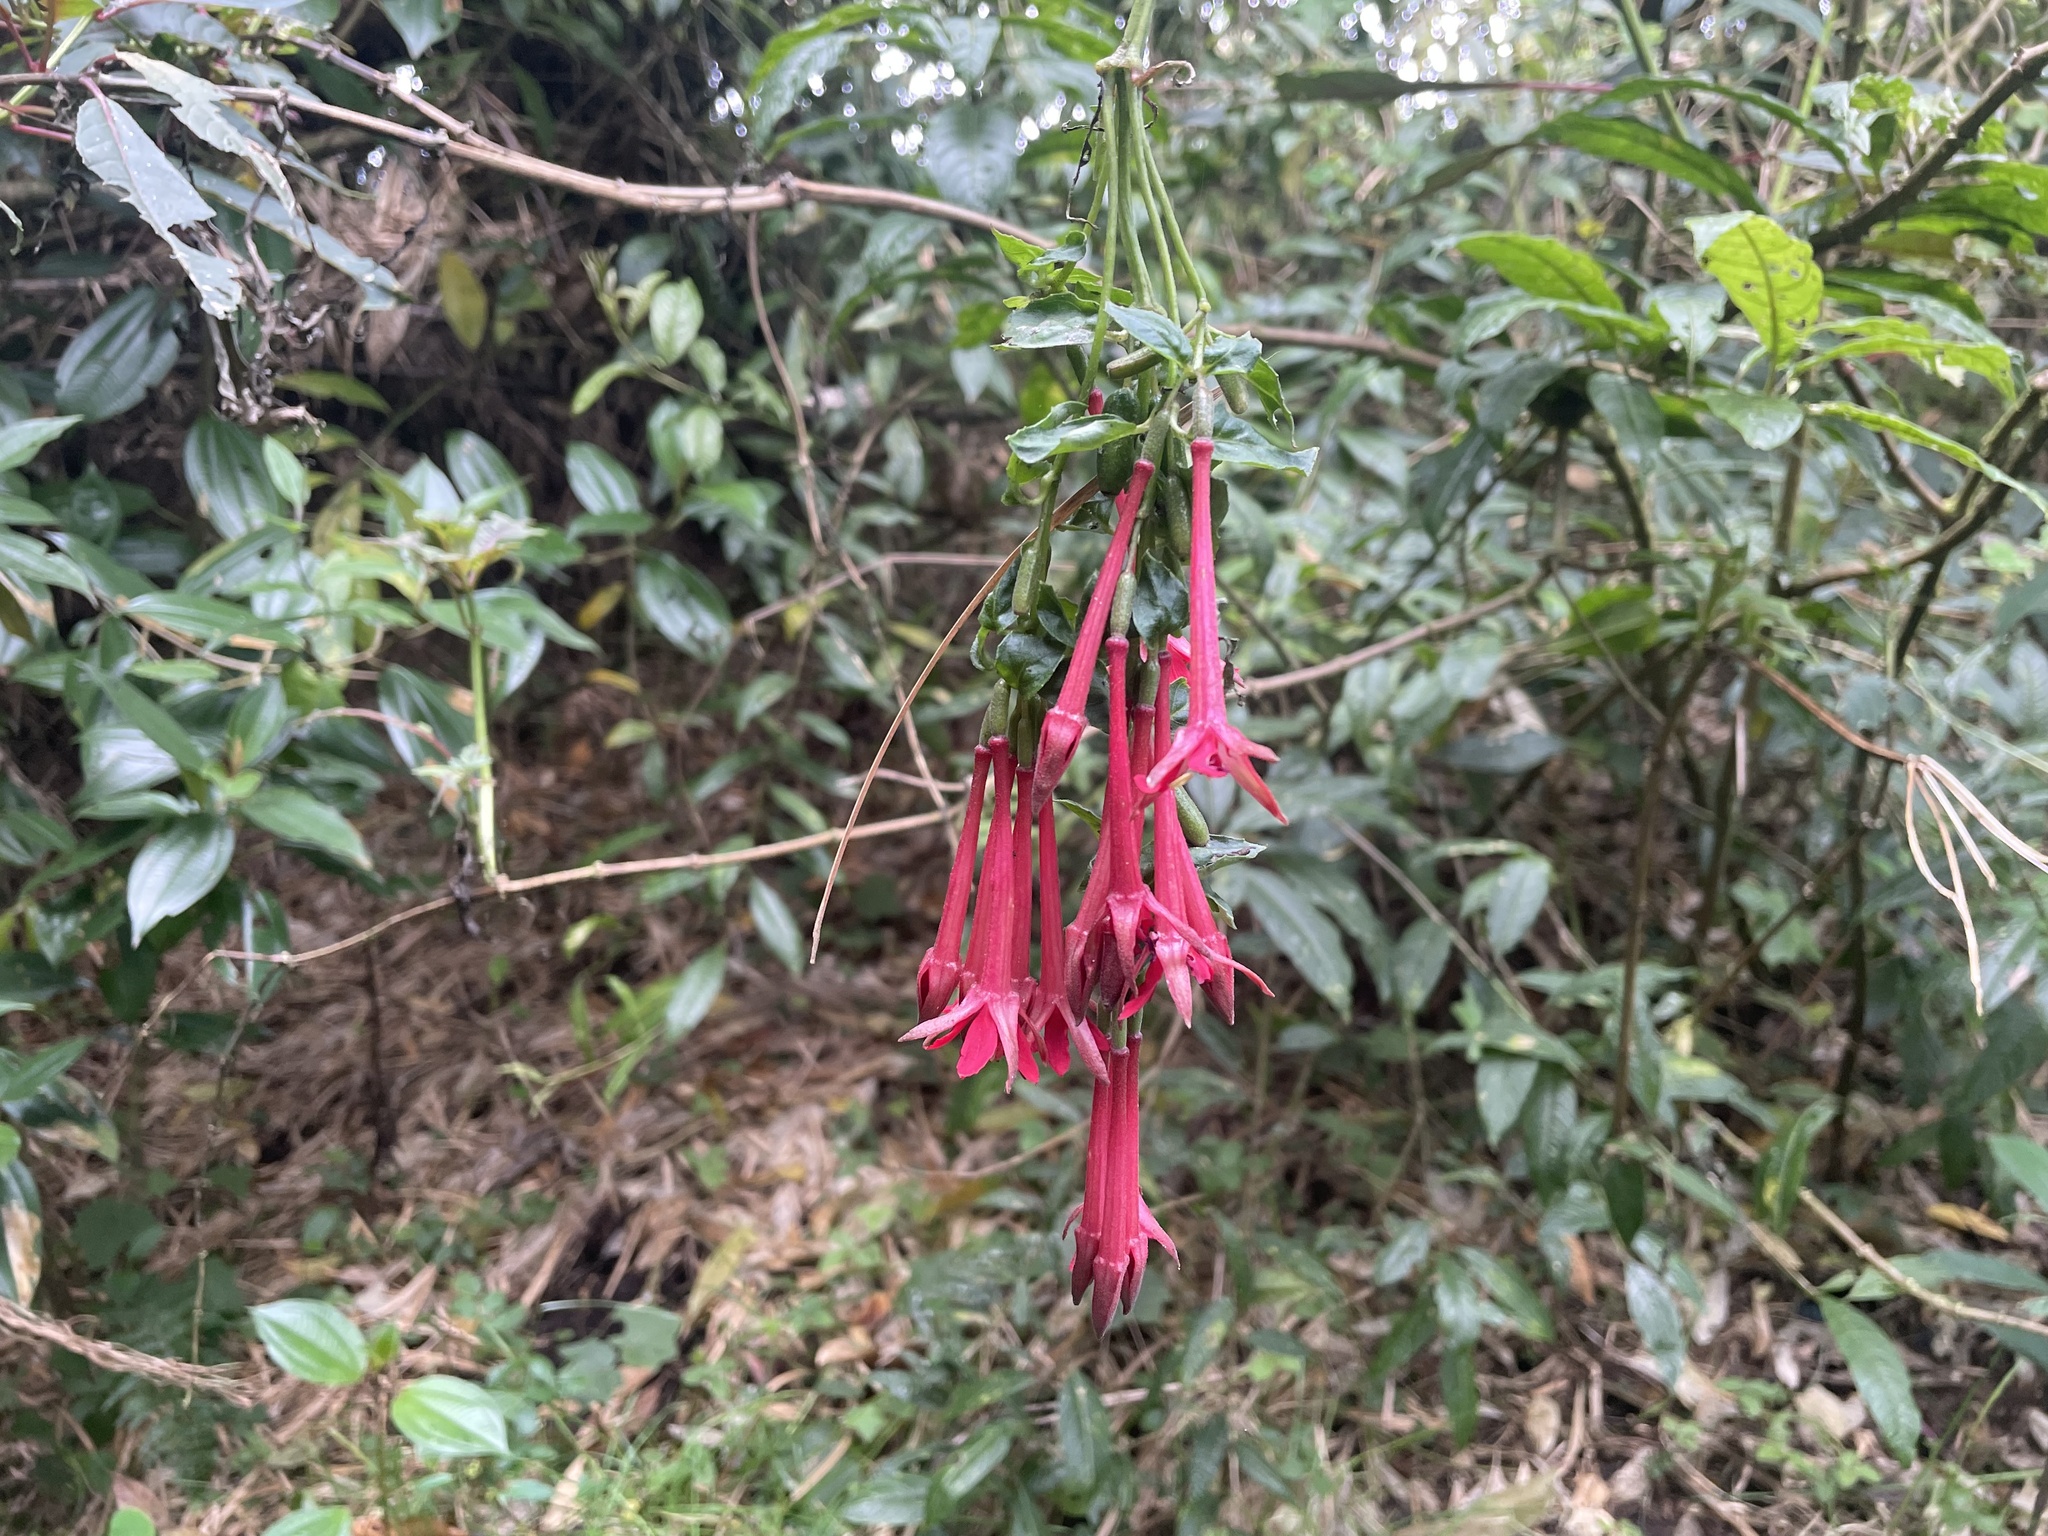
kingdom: Plantae
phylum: Tracheophyta
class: Magnoliopsida
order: Myrtales
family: Onagraceae
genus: Fuchsia
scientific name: Fuchsia boliviana
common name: Bolivian fuchsia
